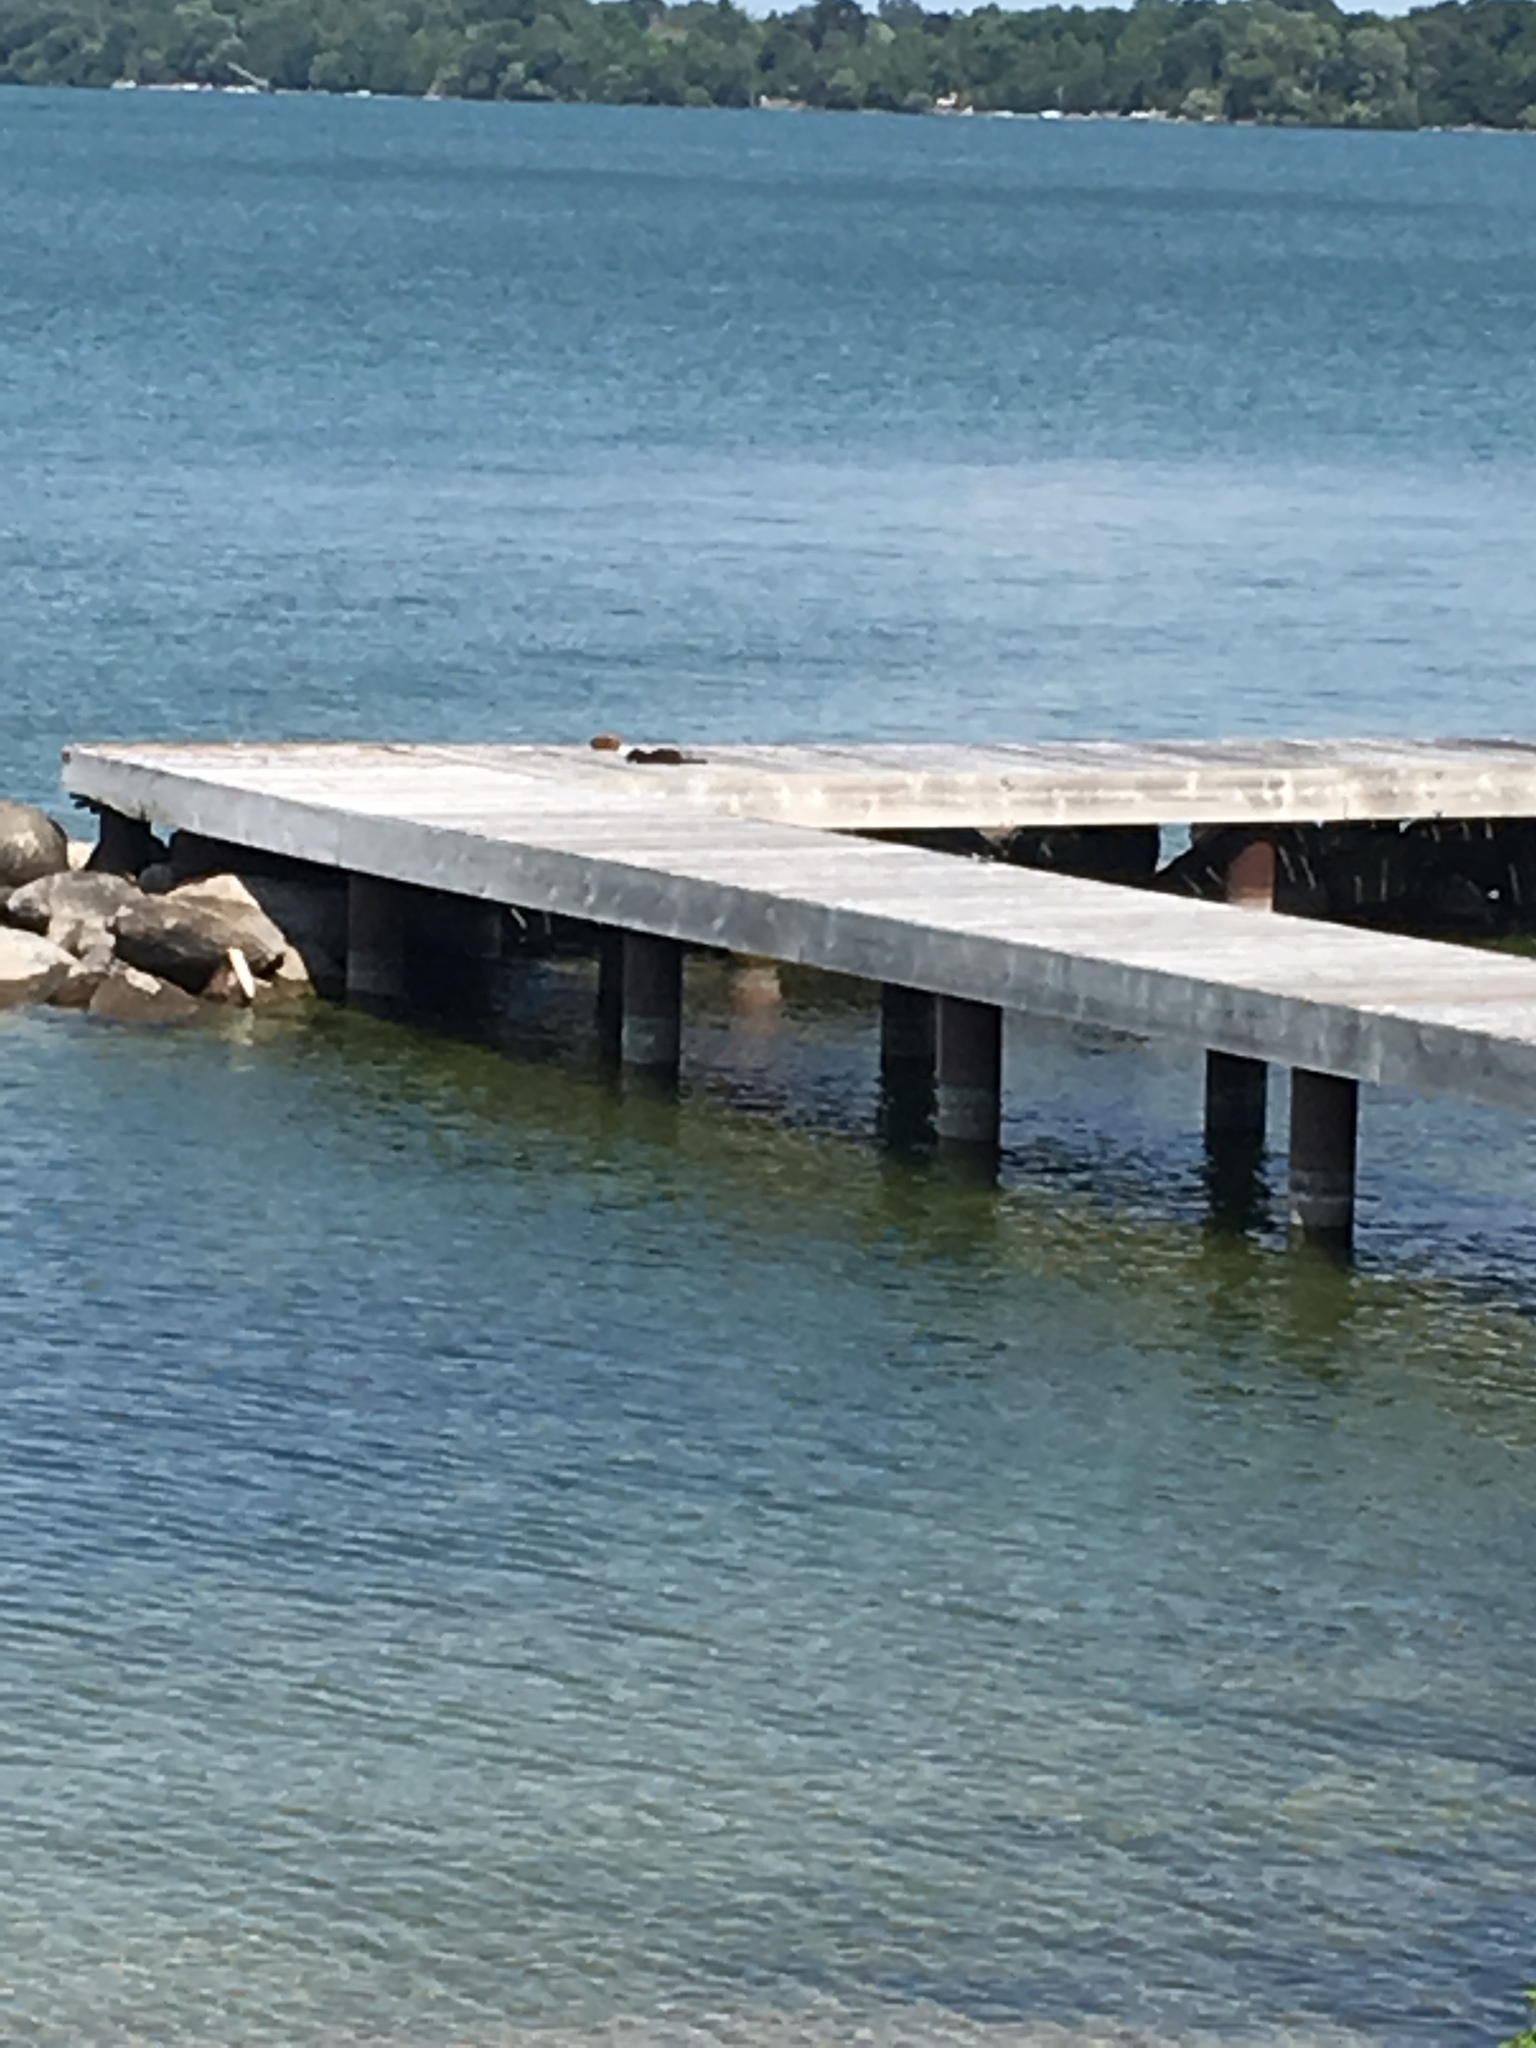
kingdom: Animalia
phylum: Chordata
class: Mammalia
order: Carnivora
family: Mustelidae
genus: Mustela
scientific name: Mustela
